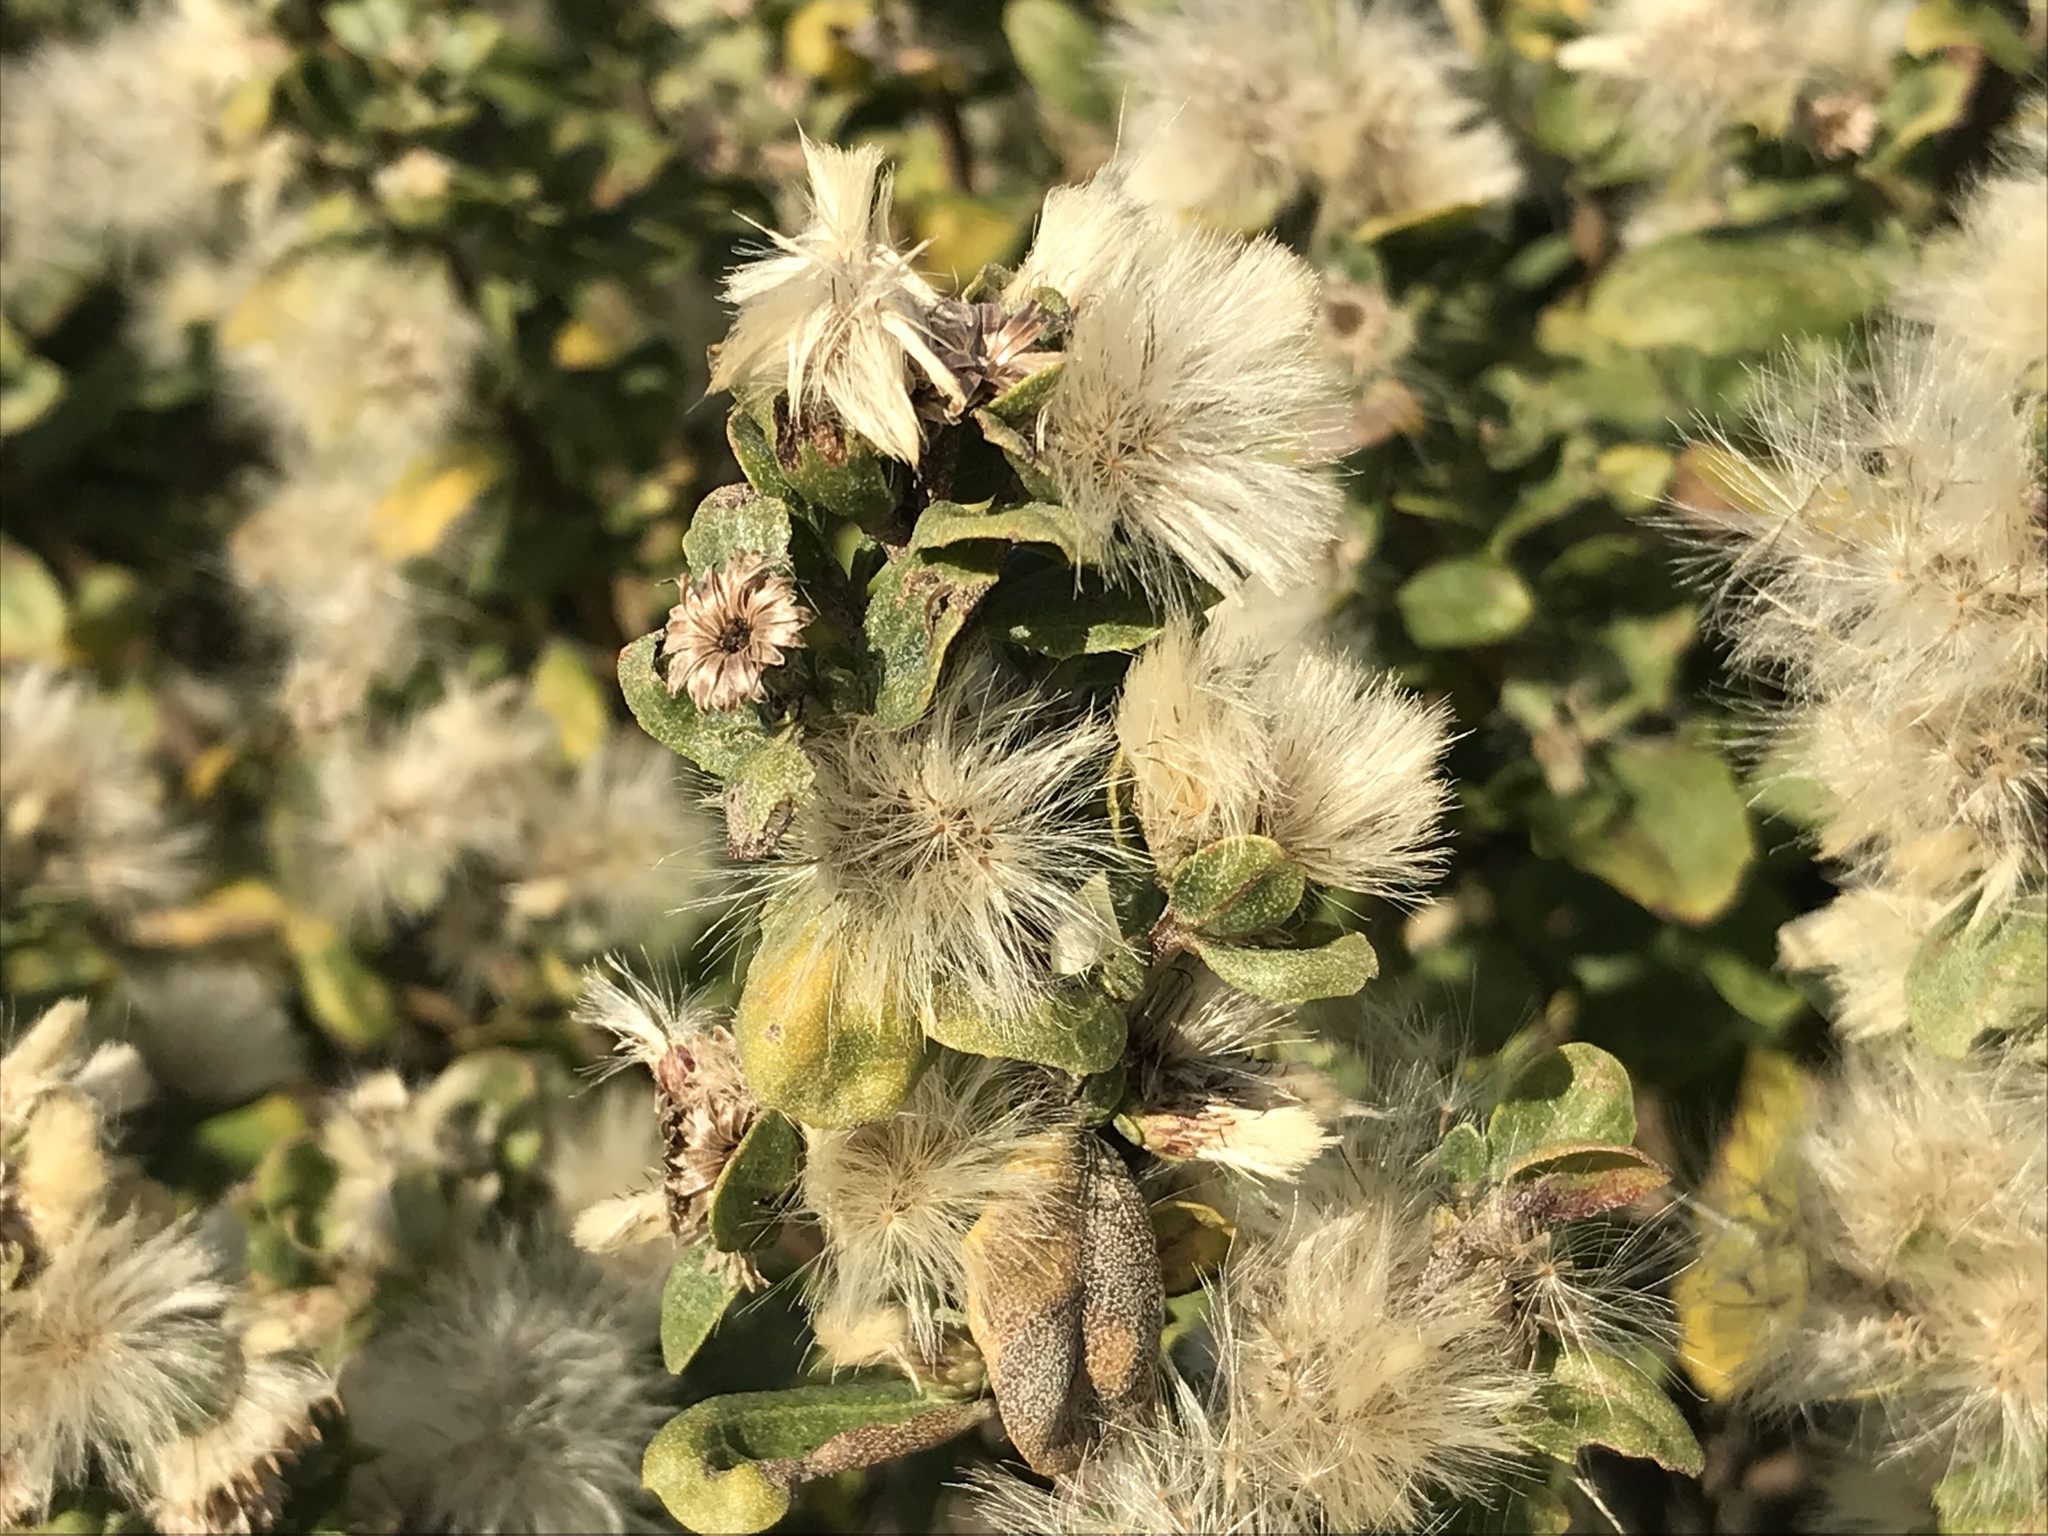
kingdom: Plantae
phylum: Tracheophyta
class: Magnoliopsida
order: Asterales
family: Asteraceae
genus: Baccharis
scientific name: Baccharis pilularis
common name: Coyotebrush
